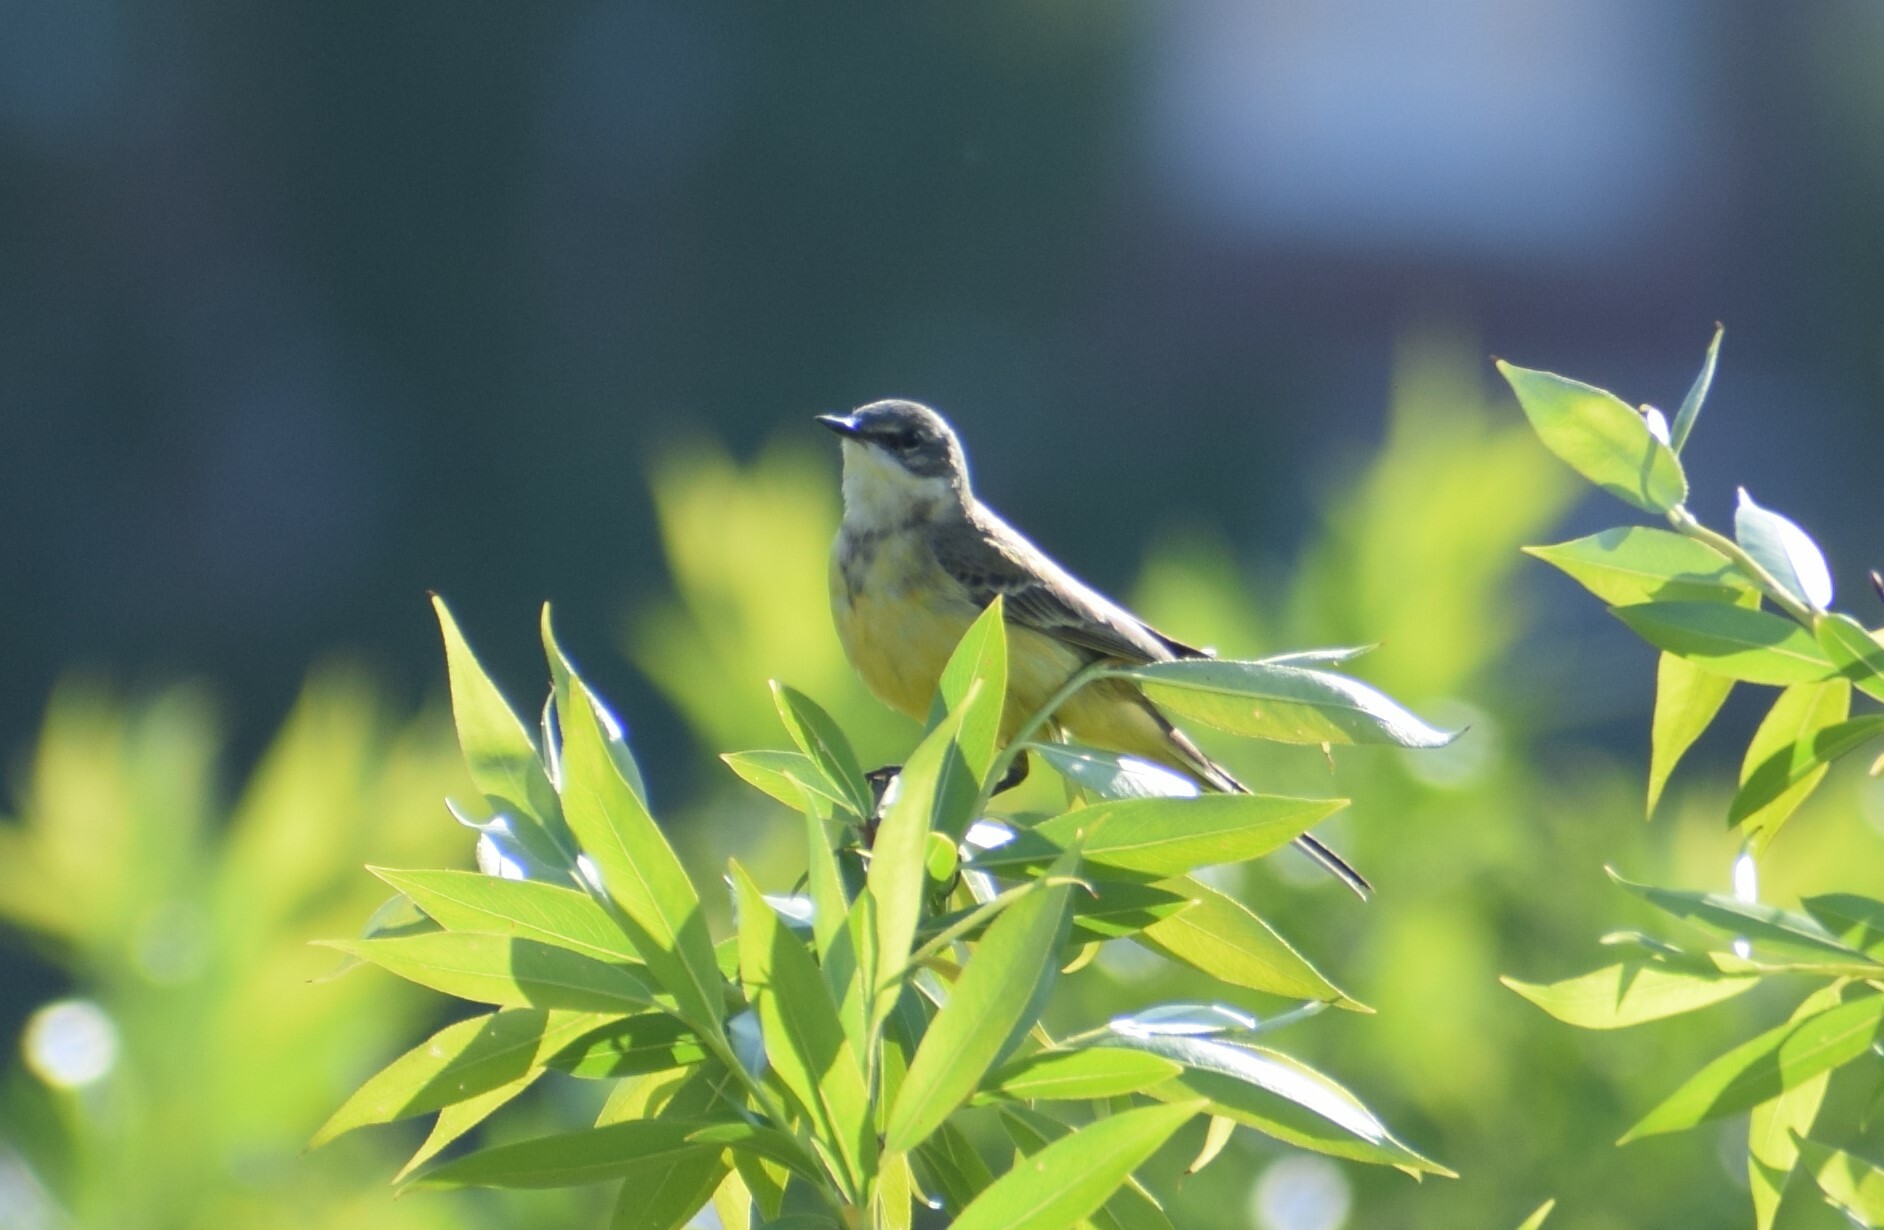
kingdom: Animalia
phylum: Chordata
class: Aves
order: Passeriformes
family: Motacillidae
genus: Motacilla
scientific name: Motacilla flava
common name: Western yellow wagtail
